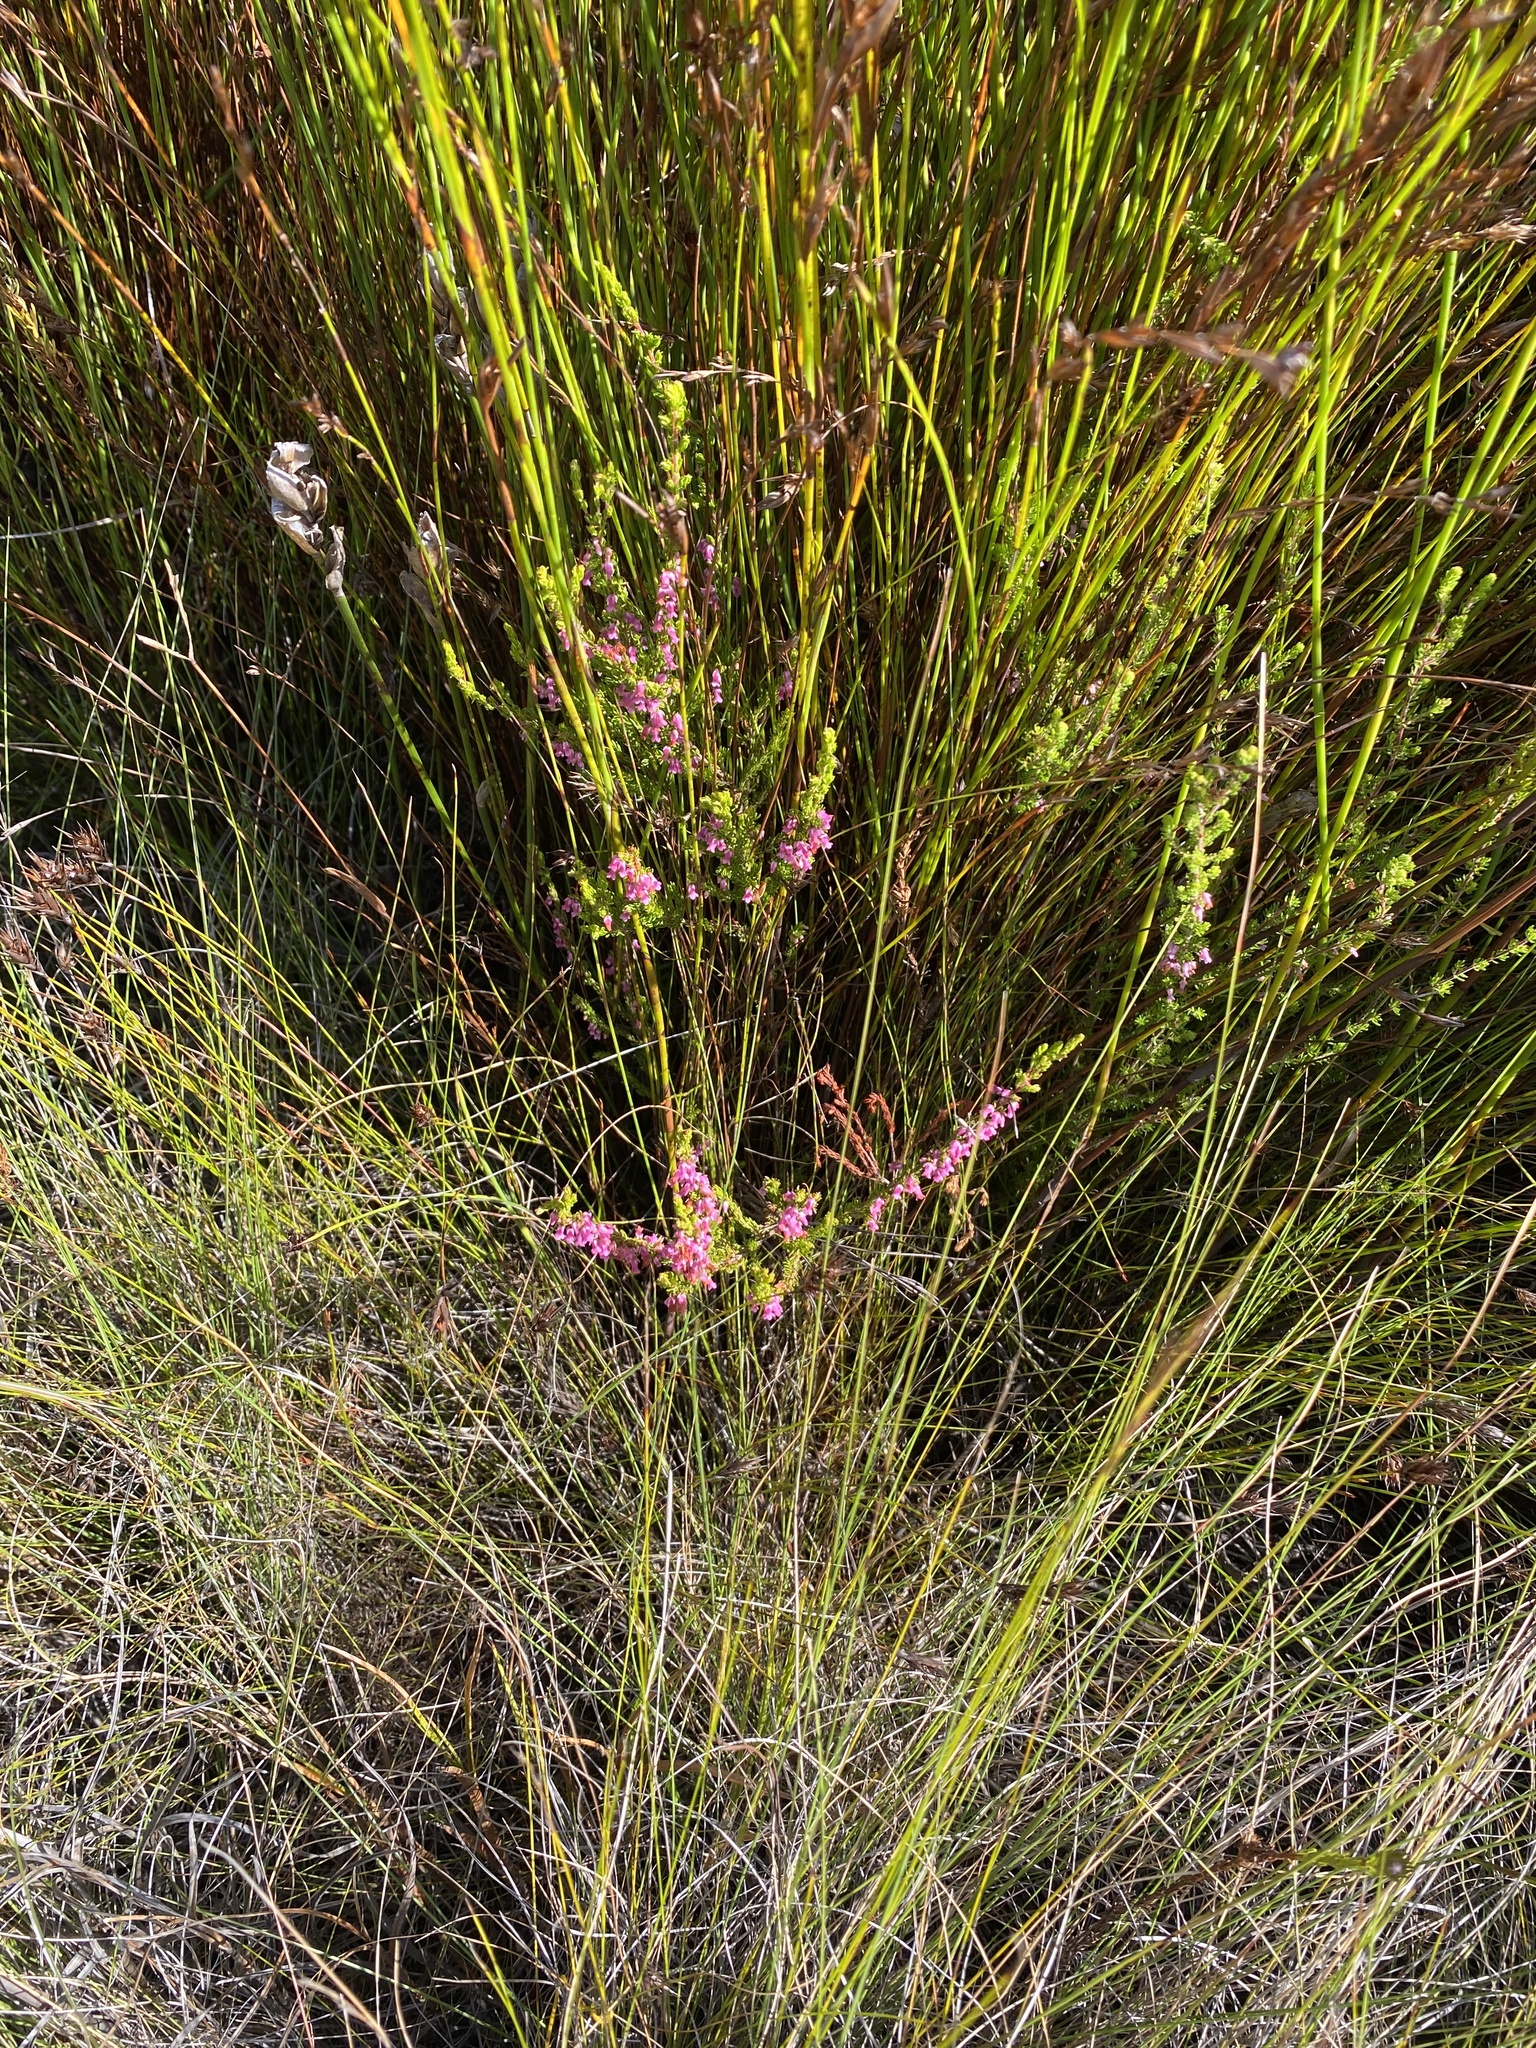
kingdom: Plantae
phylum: Tracheophyta
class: Magnoliopsida
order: Ericales
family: Ericaceae
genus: Erica
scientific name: Erica intervallaris
